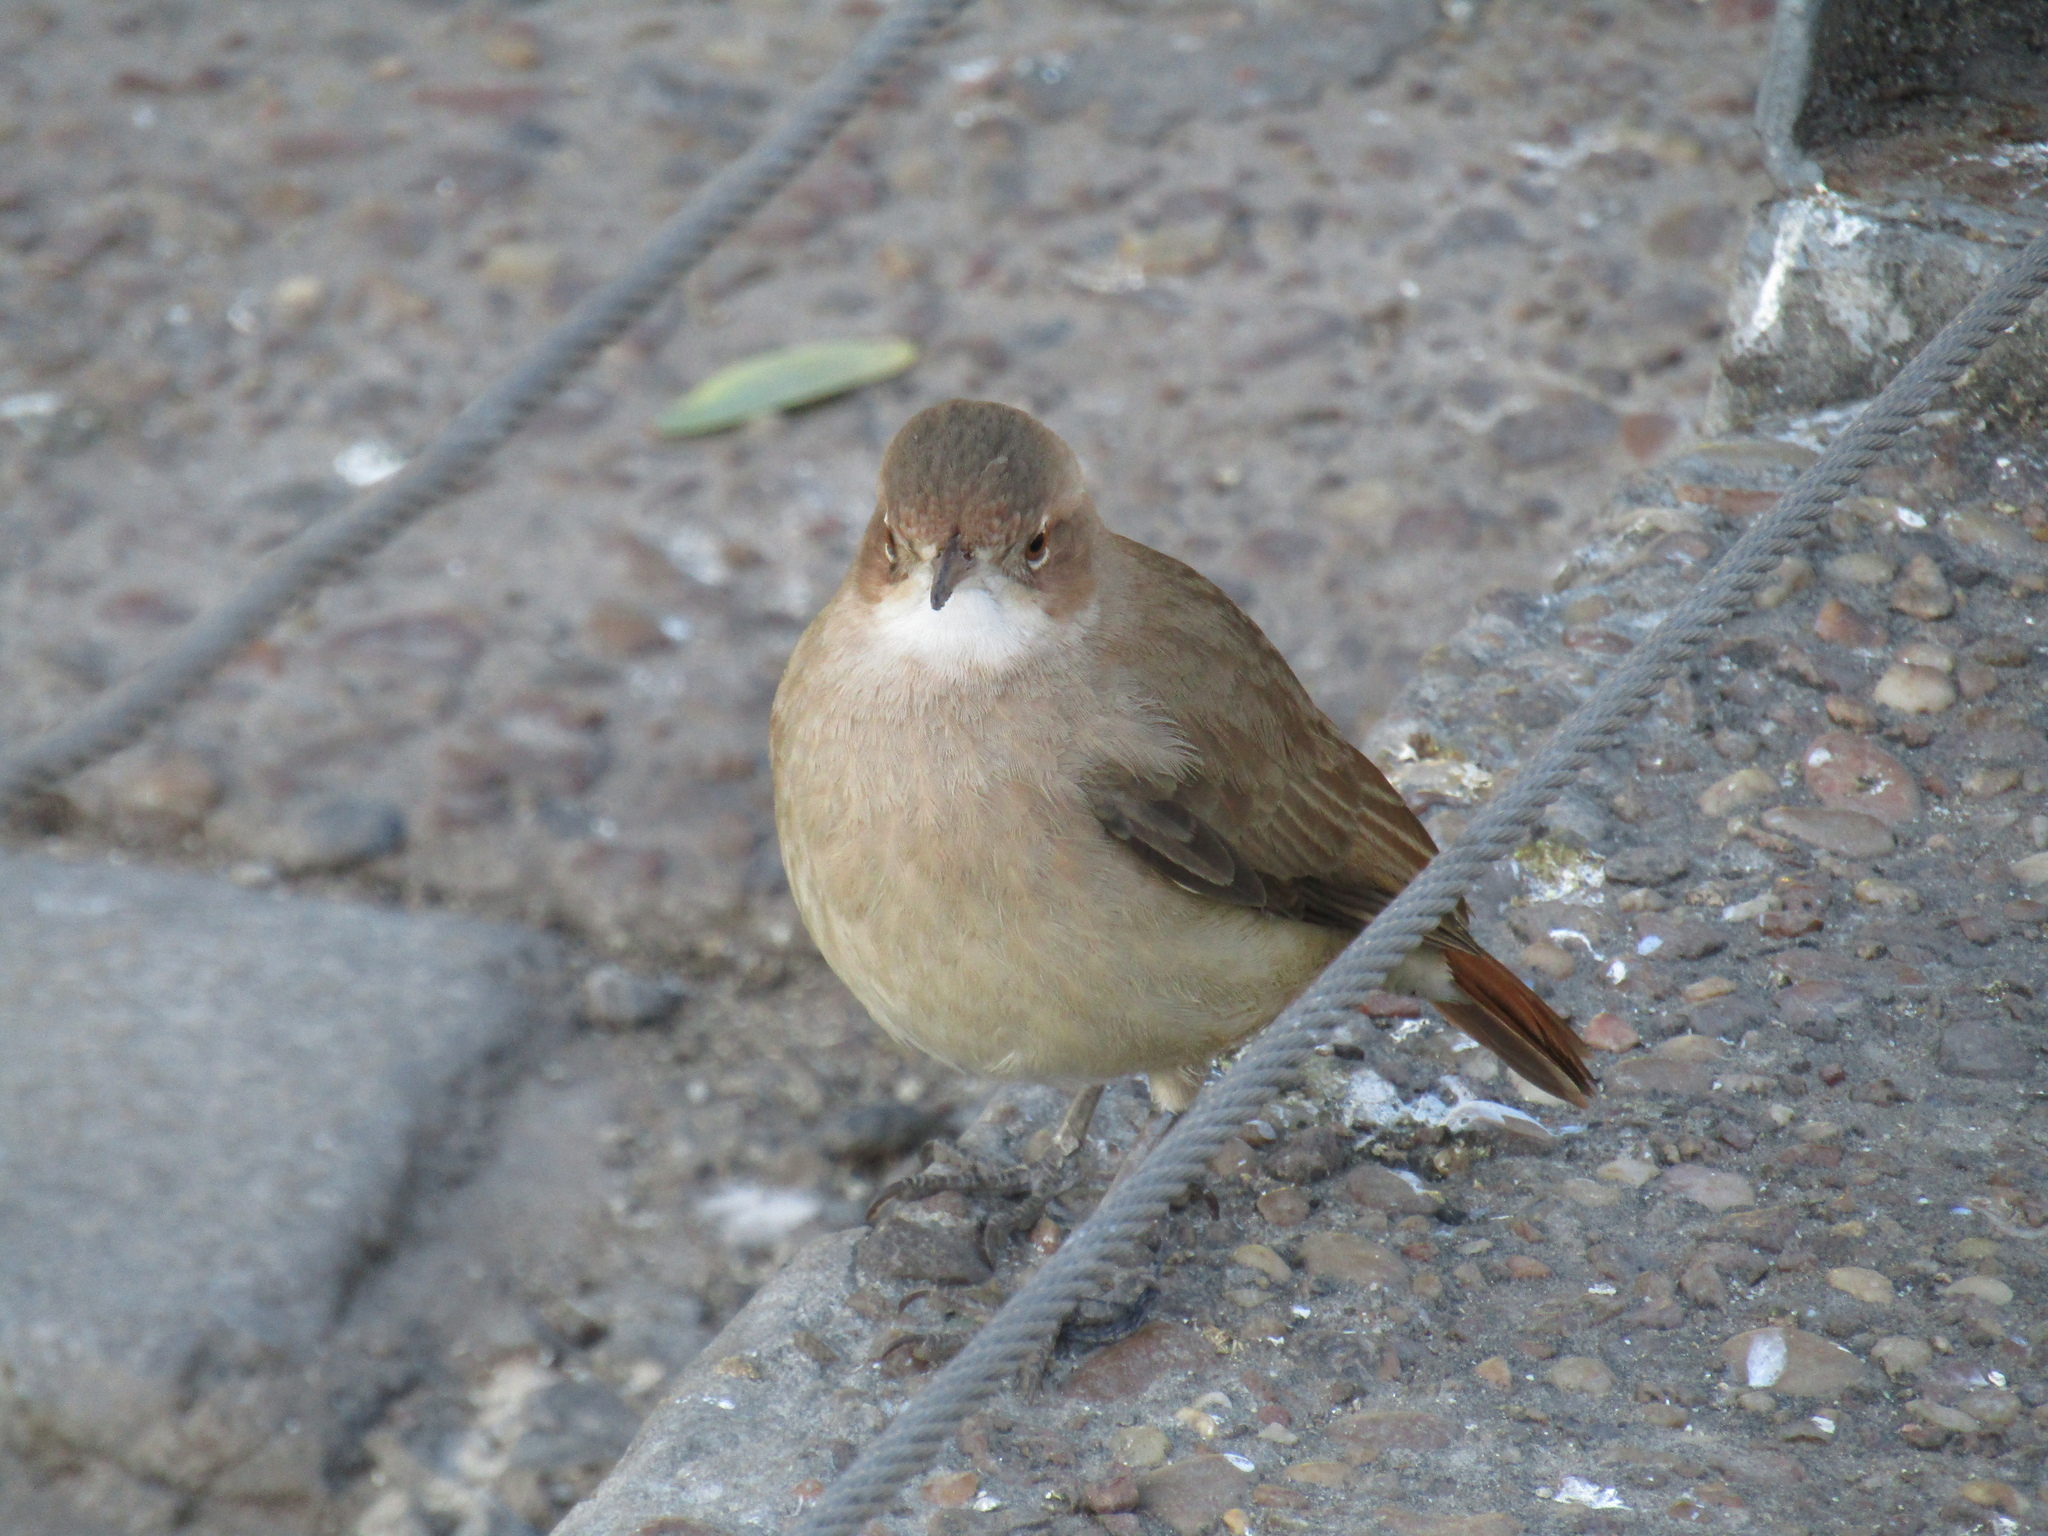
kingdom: Animalia
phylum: Chordata
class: Aves
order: Passeriformes
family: Furnariidae
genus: Furnarius
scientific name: Furnarius rufus
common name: Rufous hornero
